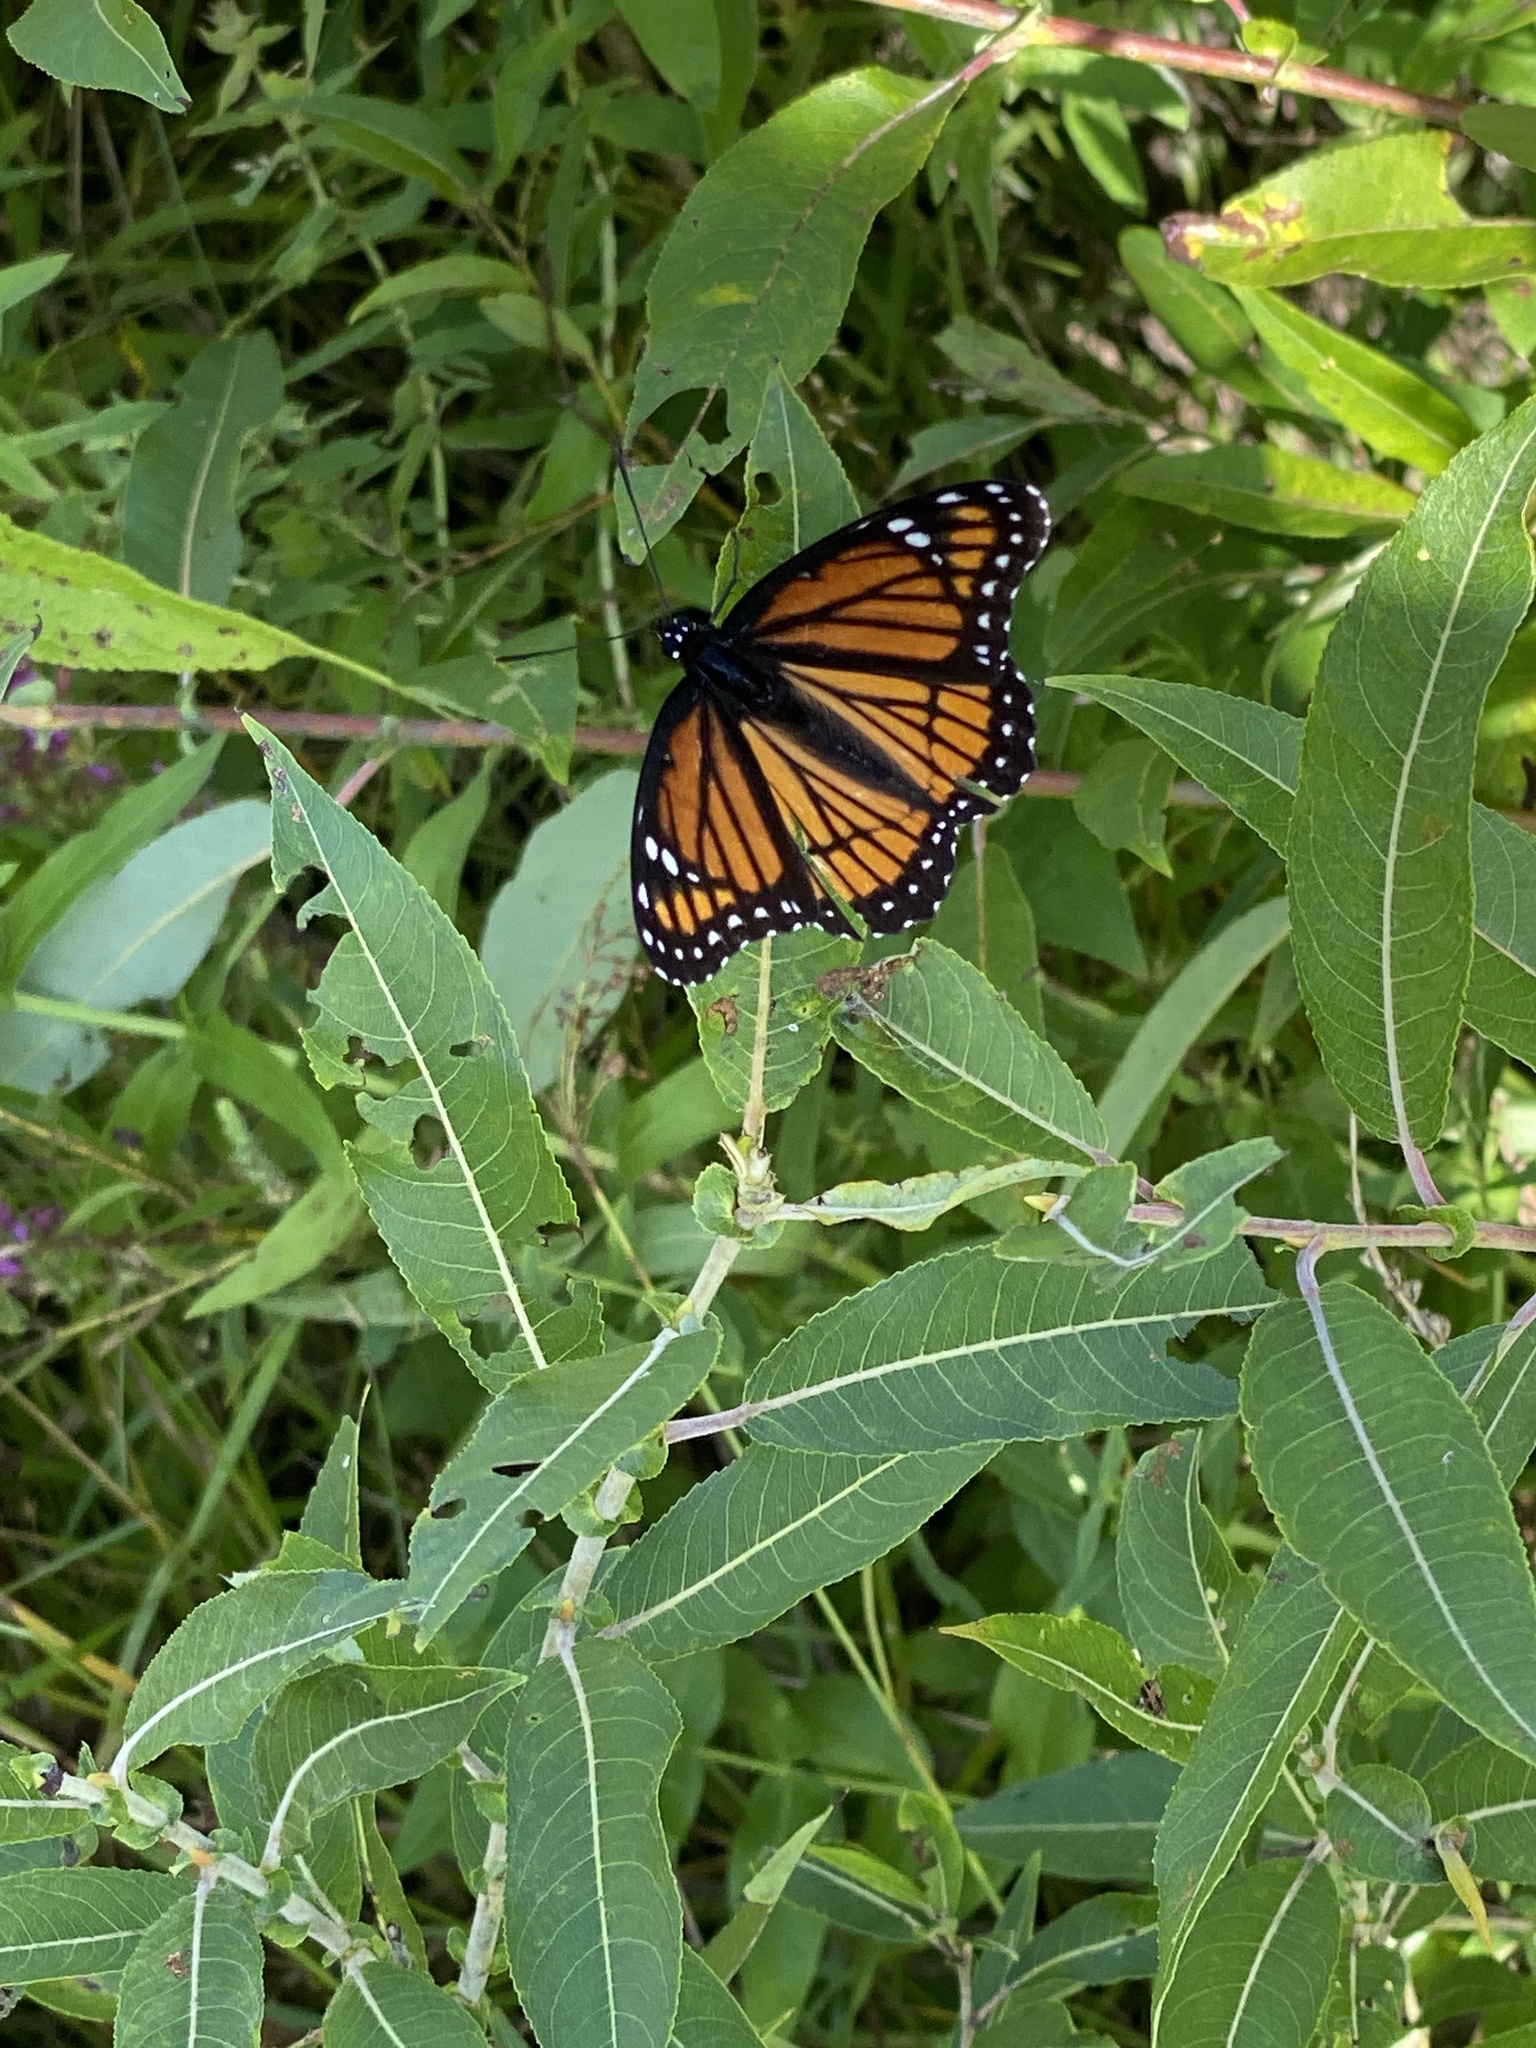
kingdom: Animalia
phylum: Arthropoda
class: Insecta
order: Lepidoptera
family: Nymphalidae
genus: Limenitis
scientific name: Limenitis archippus
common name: Viceroy
